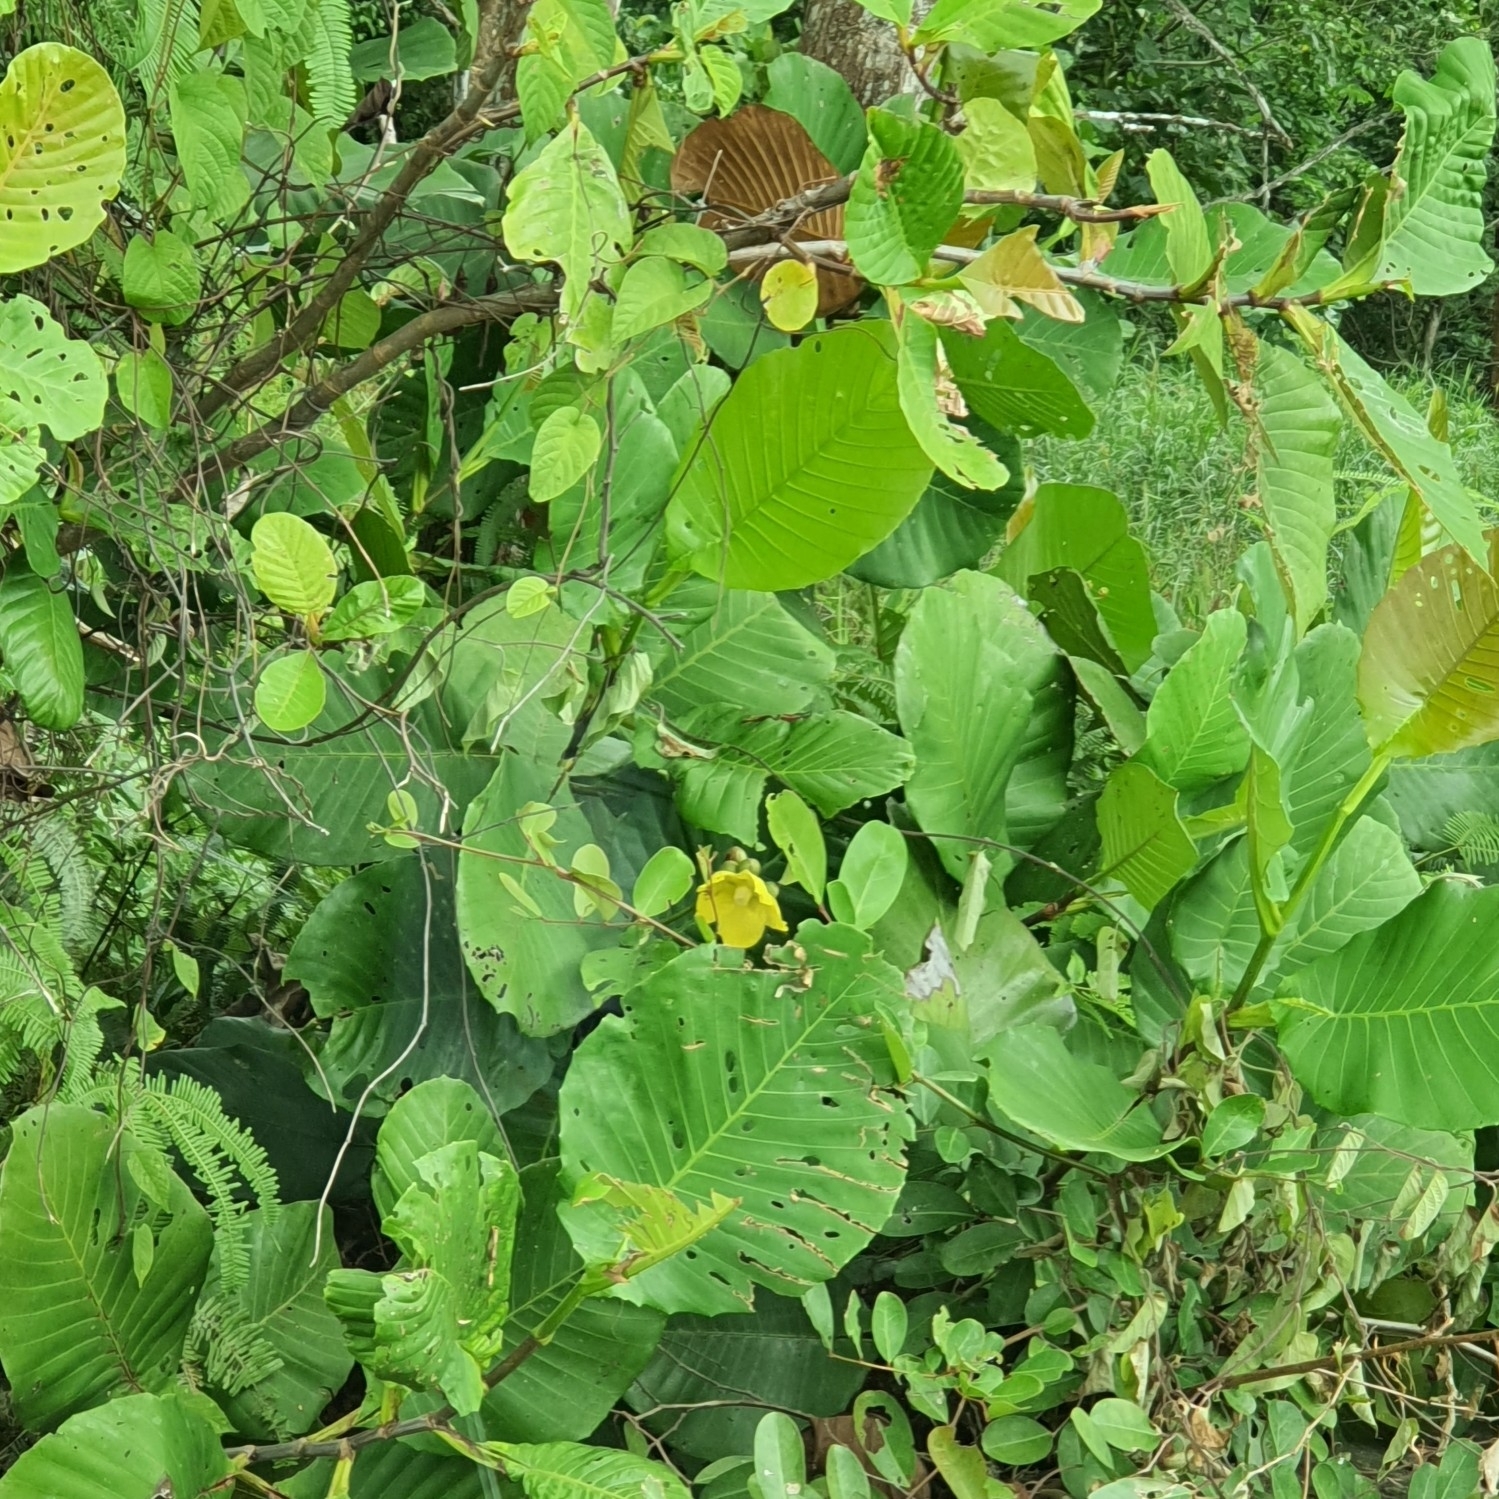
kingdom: Plantae
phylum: Tracheophyta
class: Magnoliopsida
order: Dilleniales
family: Dilleniaceae
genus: Dillenia
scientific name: Dillenia suffruticosa
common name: Shrubby dillenia
